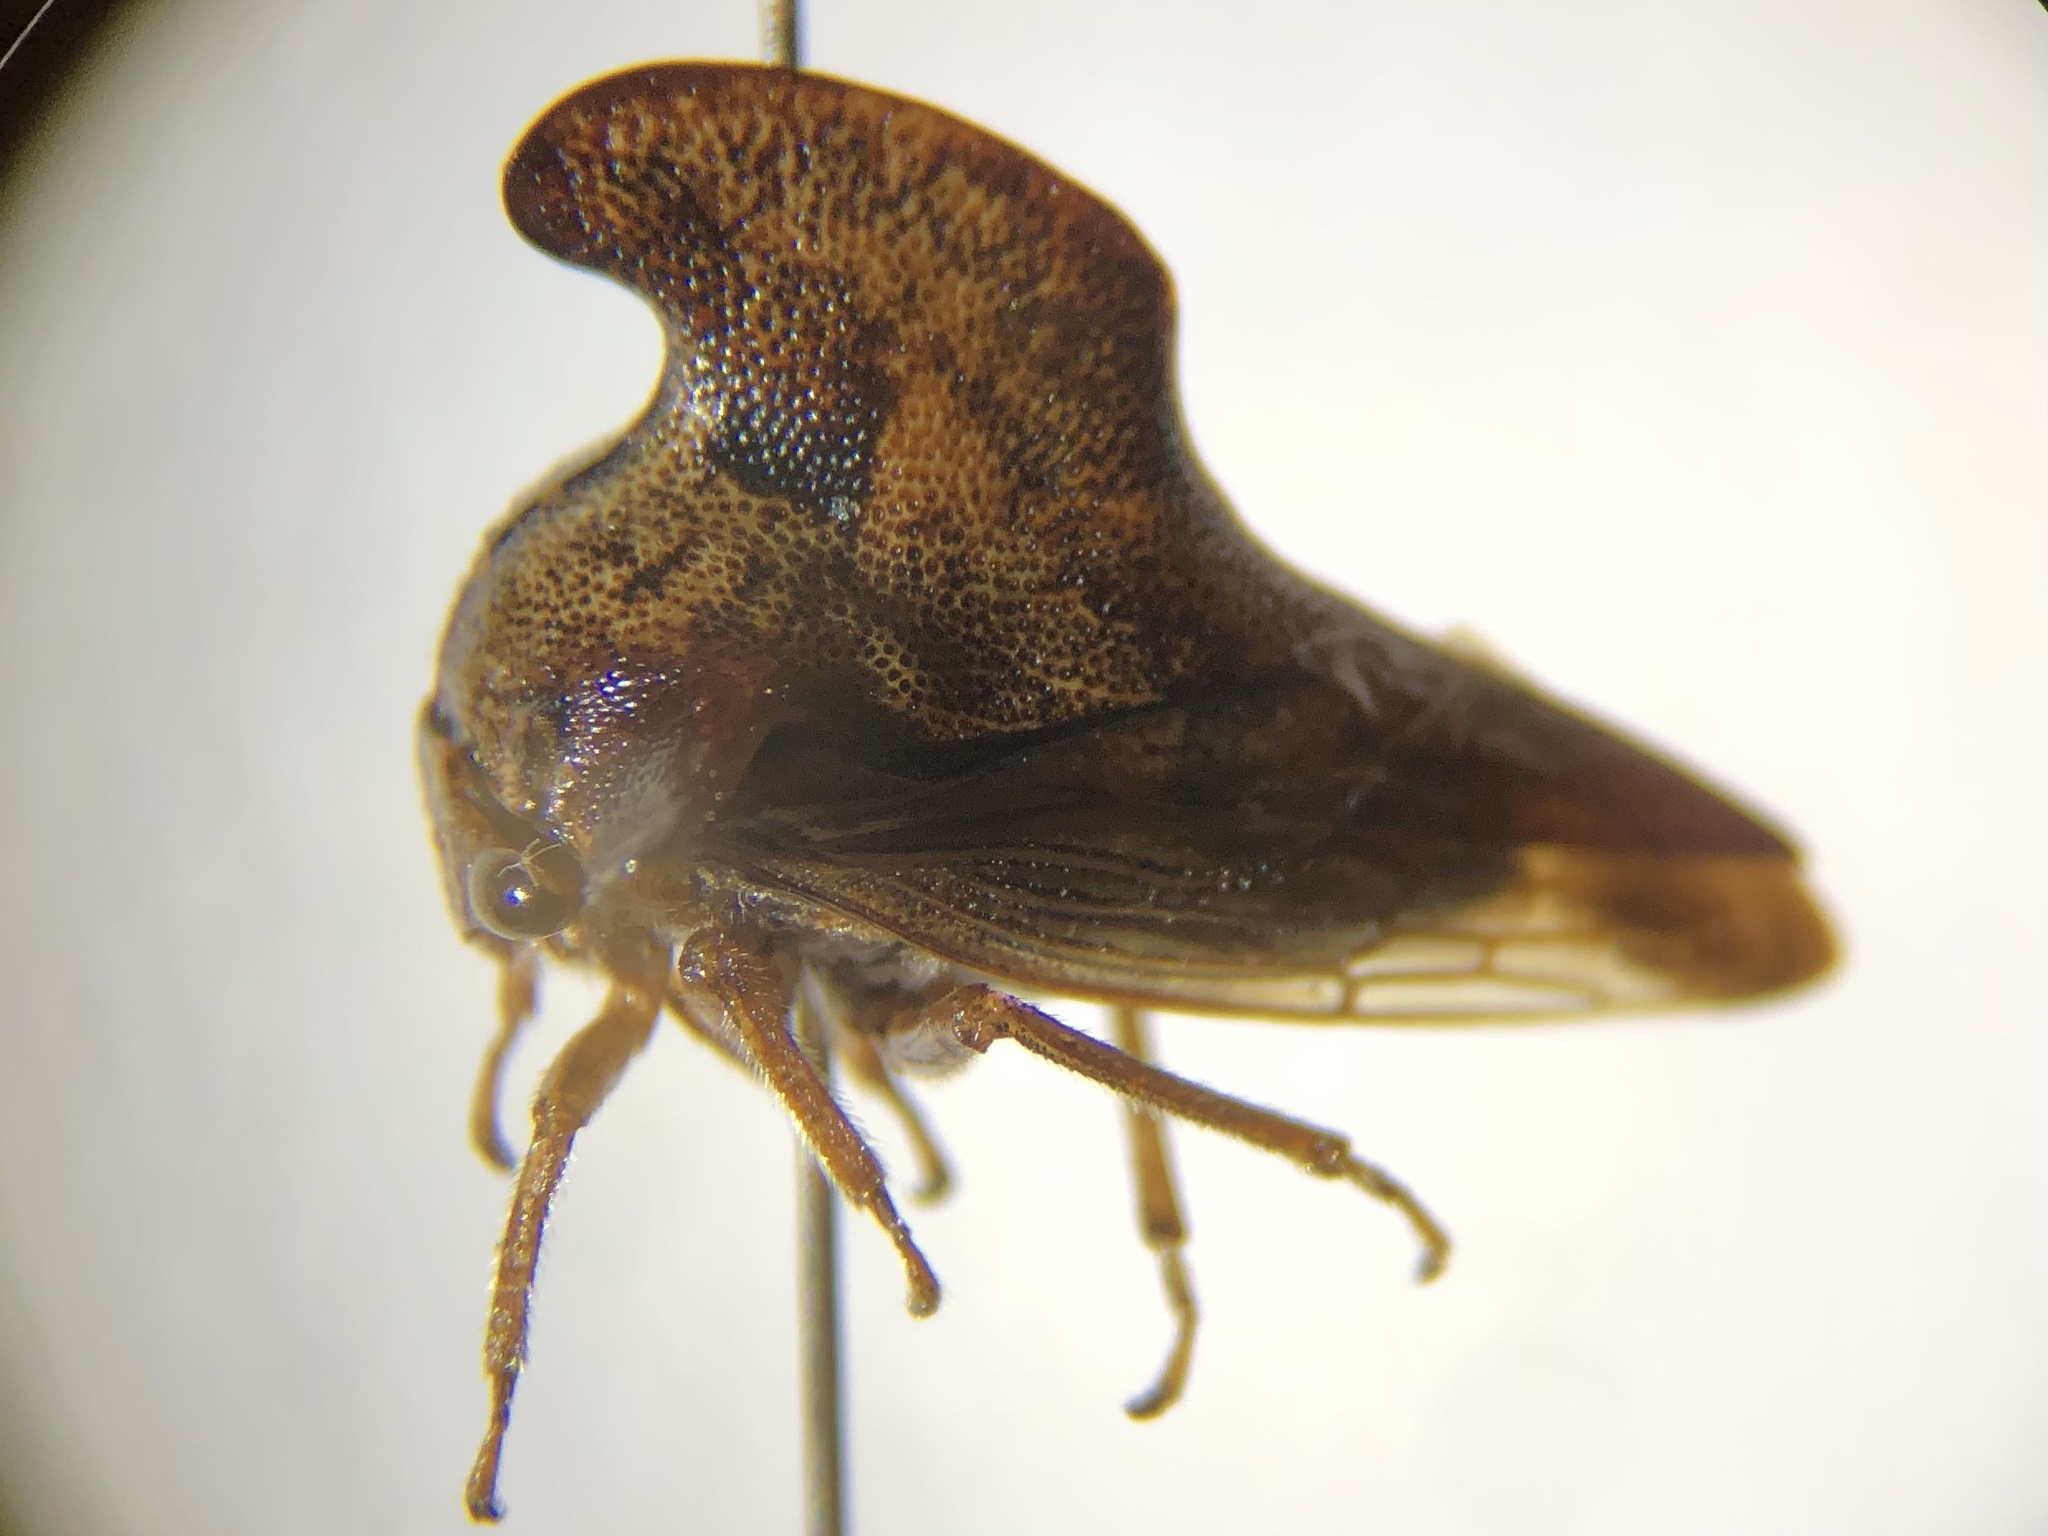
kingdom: Animalia
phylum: Arthropoda
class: Insecta
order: Hemiptera
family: Membracidae
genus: Telamona
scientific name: Telamona projecta
